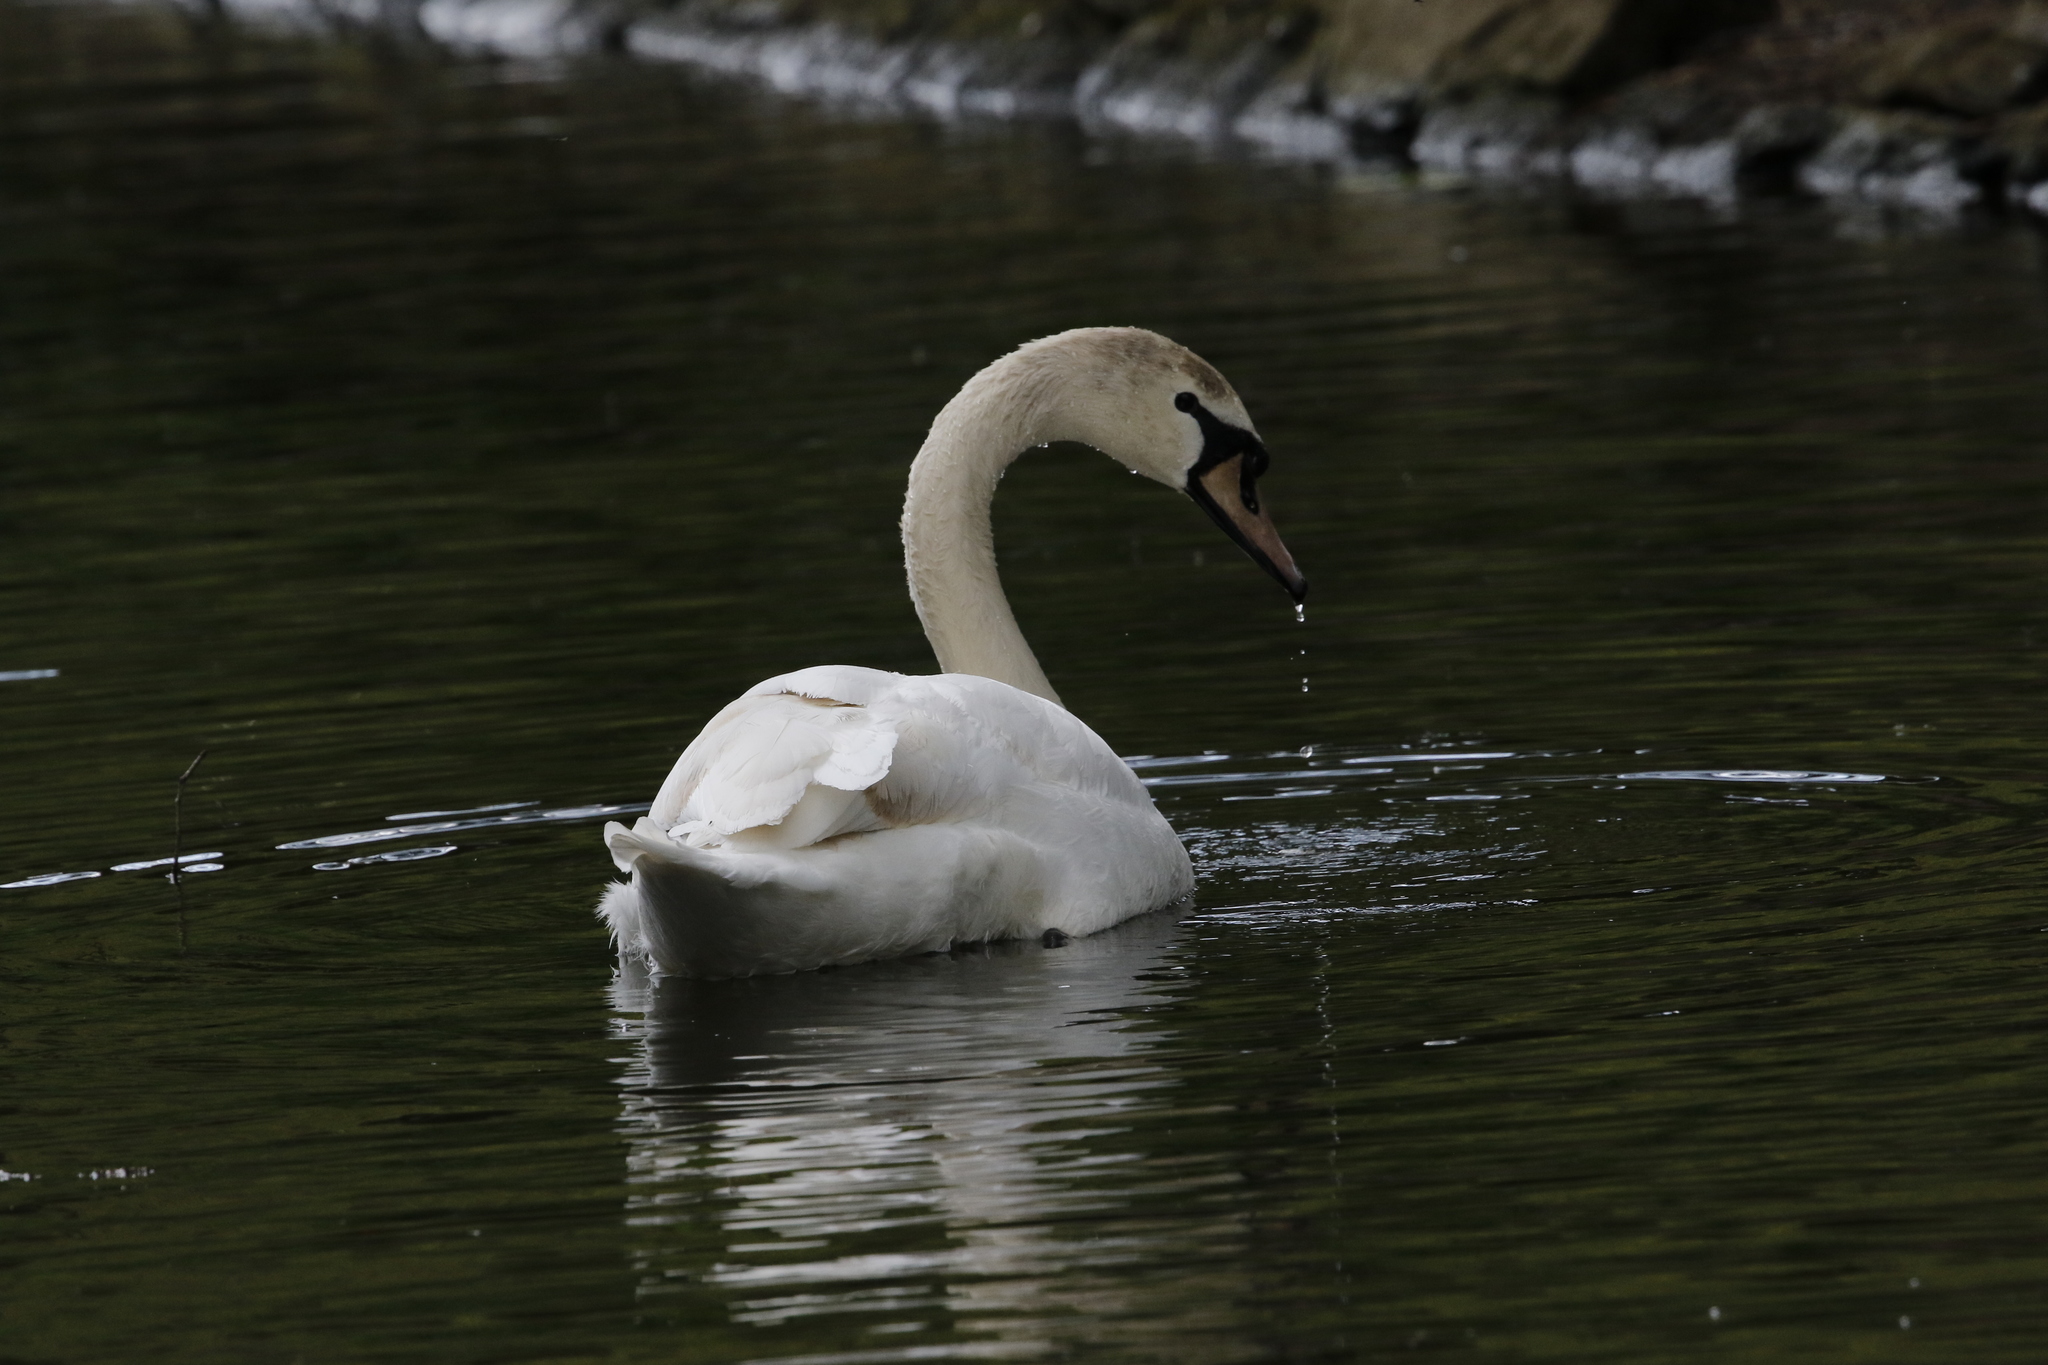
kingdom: Animalia
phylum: Chordata
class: Aves
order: Anseriformes
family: Anatidae
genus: Cygnus
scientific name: Cygnus olor
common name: Mute swan
